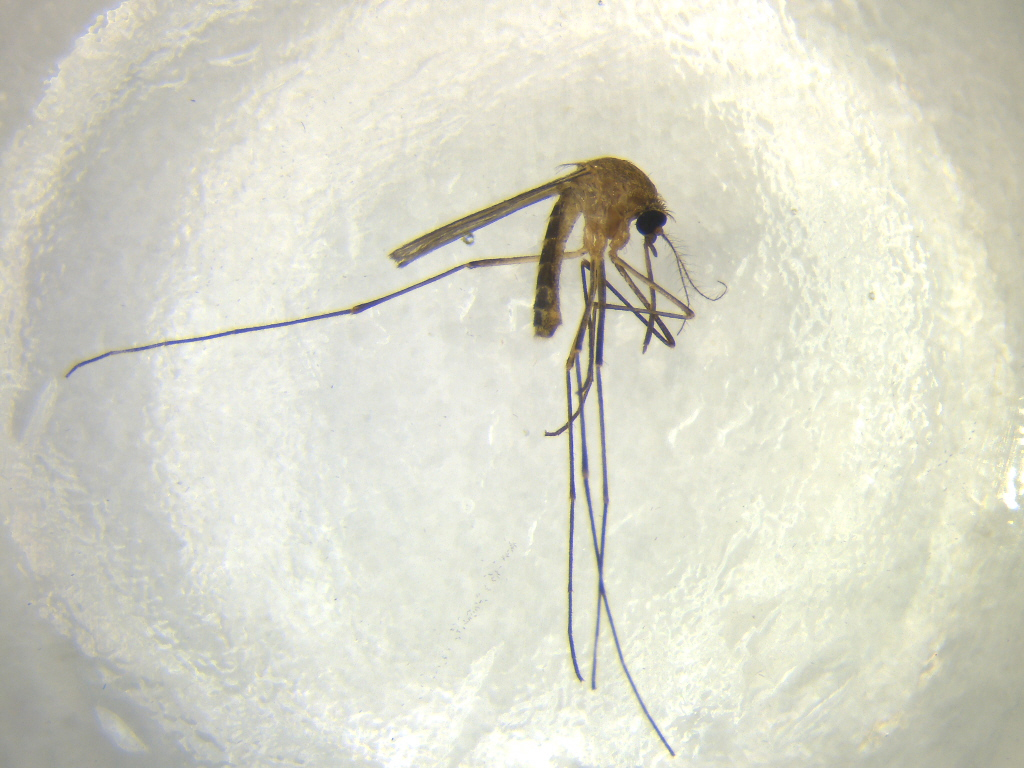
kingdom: Animalia
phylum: Arthropoda
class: Insecta
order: Diptera
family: Culicidae
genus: Culex
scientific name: Culex quinquefasciatus
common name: Southern house mosquito
